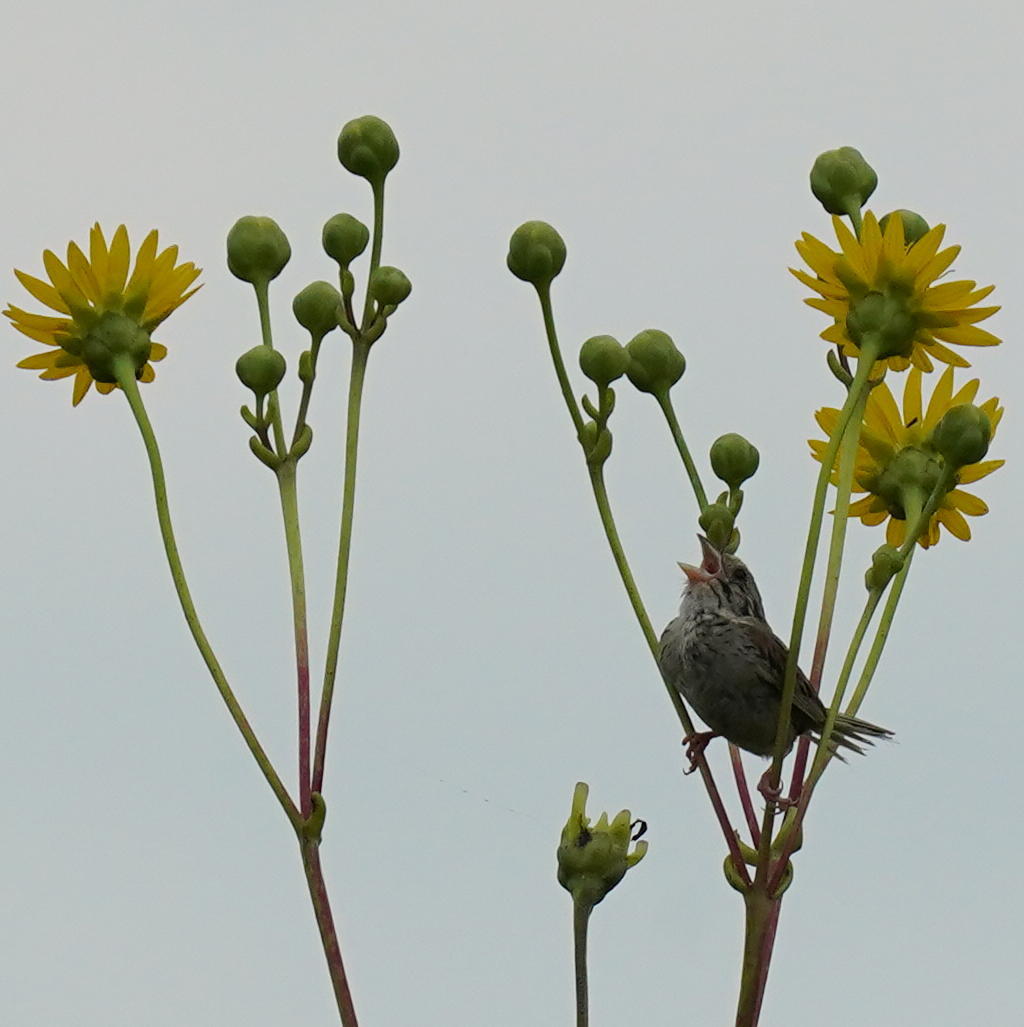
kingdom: Animalia
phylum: Chordata
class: Aves
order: Passeriformes
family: Passerellidae
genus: Centronyx
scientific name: Centronyx henslowii
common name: Henslow's sparrow
